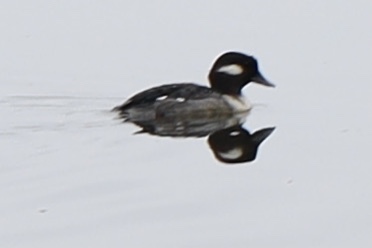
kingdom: Animalia
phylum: Chordata
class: Aves
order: Anseriformes
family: Anatidae
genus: Bucephala
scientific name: Bucephala albeola
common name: Bufflehead
